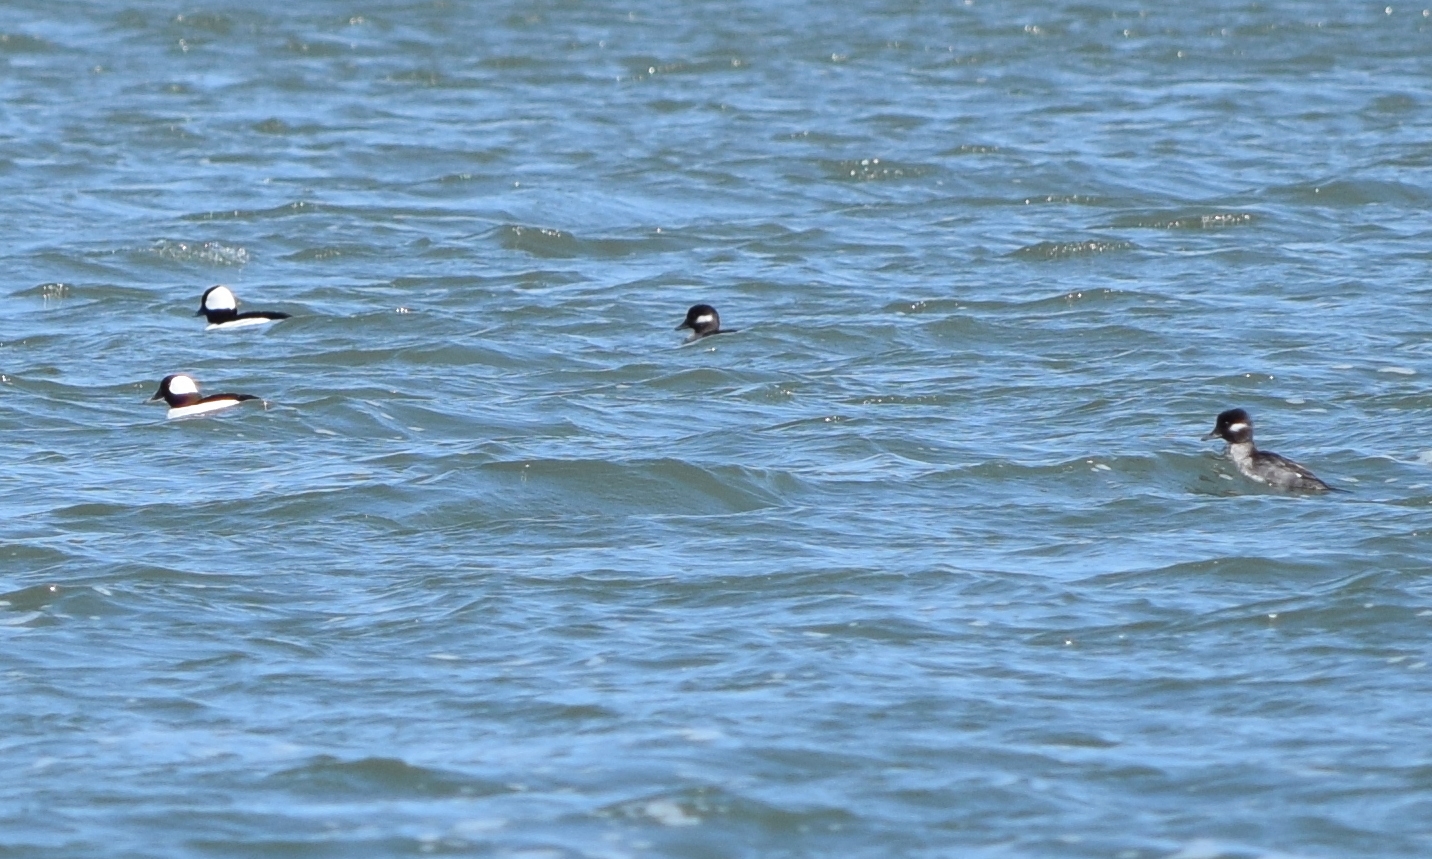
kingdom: Animalia
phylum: Chordata
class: Aves
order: Anseriformes
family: Anatidae
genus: Bucephala
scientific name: Bucephala albeola
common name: Bufflehead
